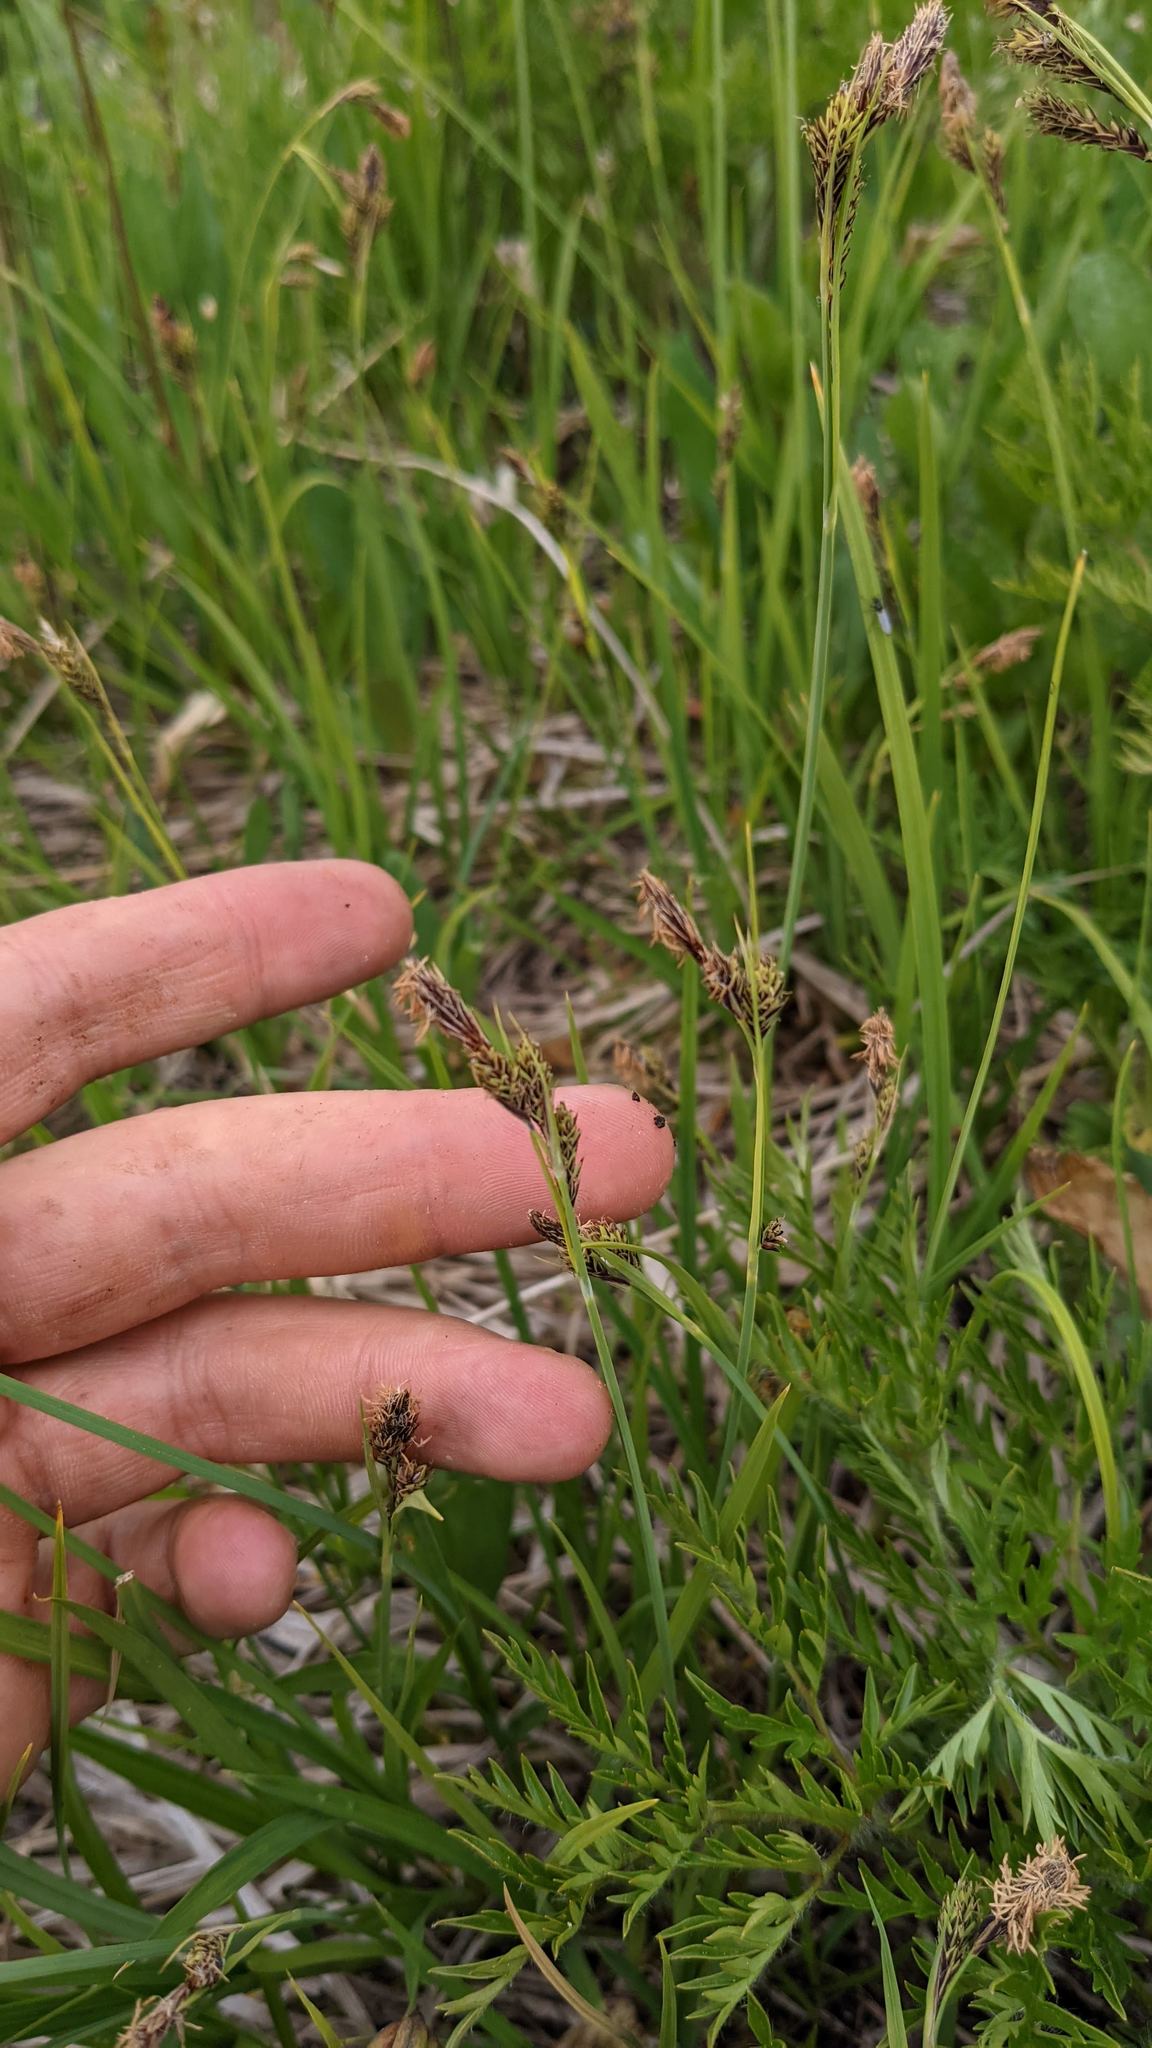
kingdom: Plantae
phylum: Tracheophyta
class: Liliopsida
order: Poales
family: Cyperaceae
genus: Carex
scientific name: Carex macrochaeta
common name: Alaska large awn sedge
